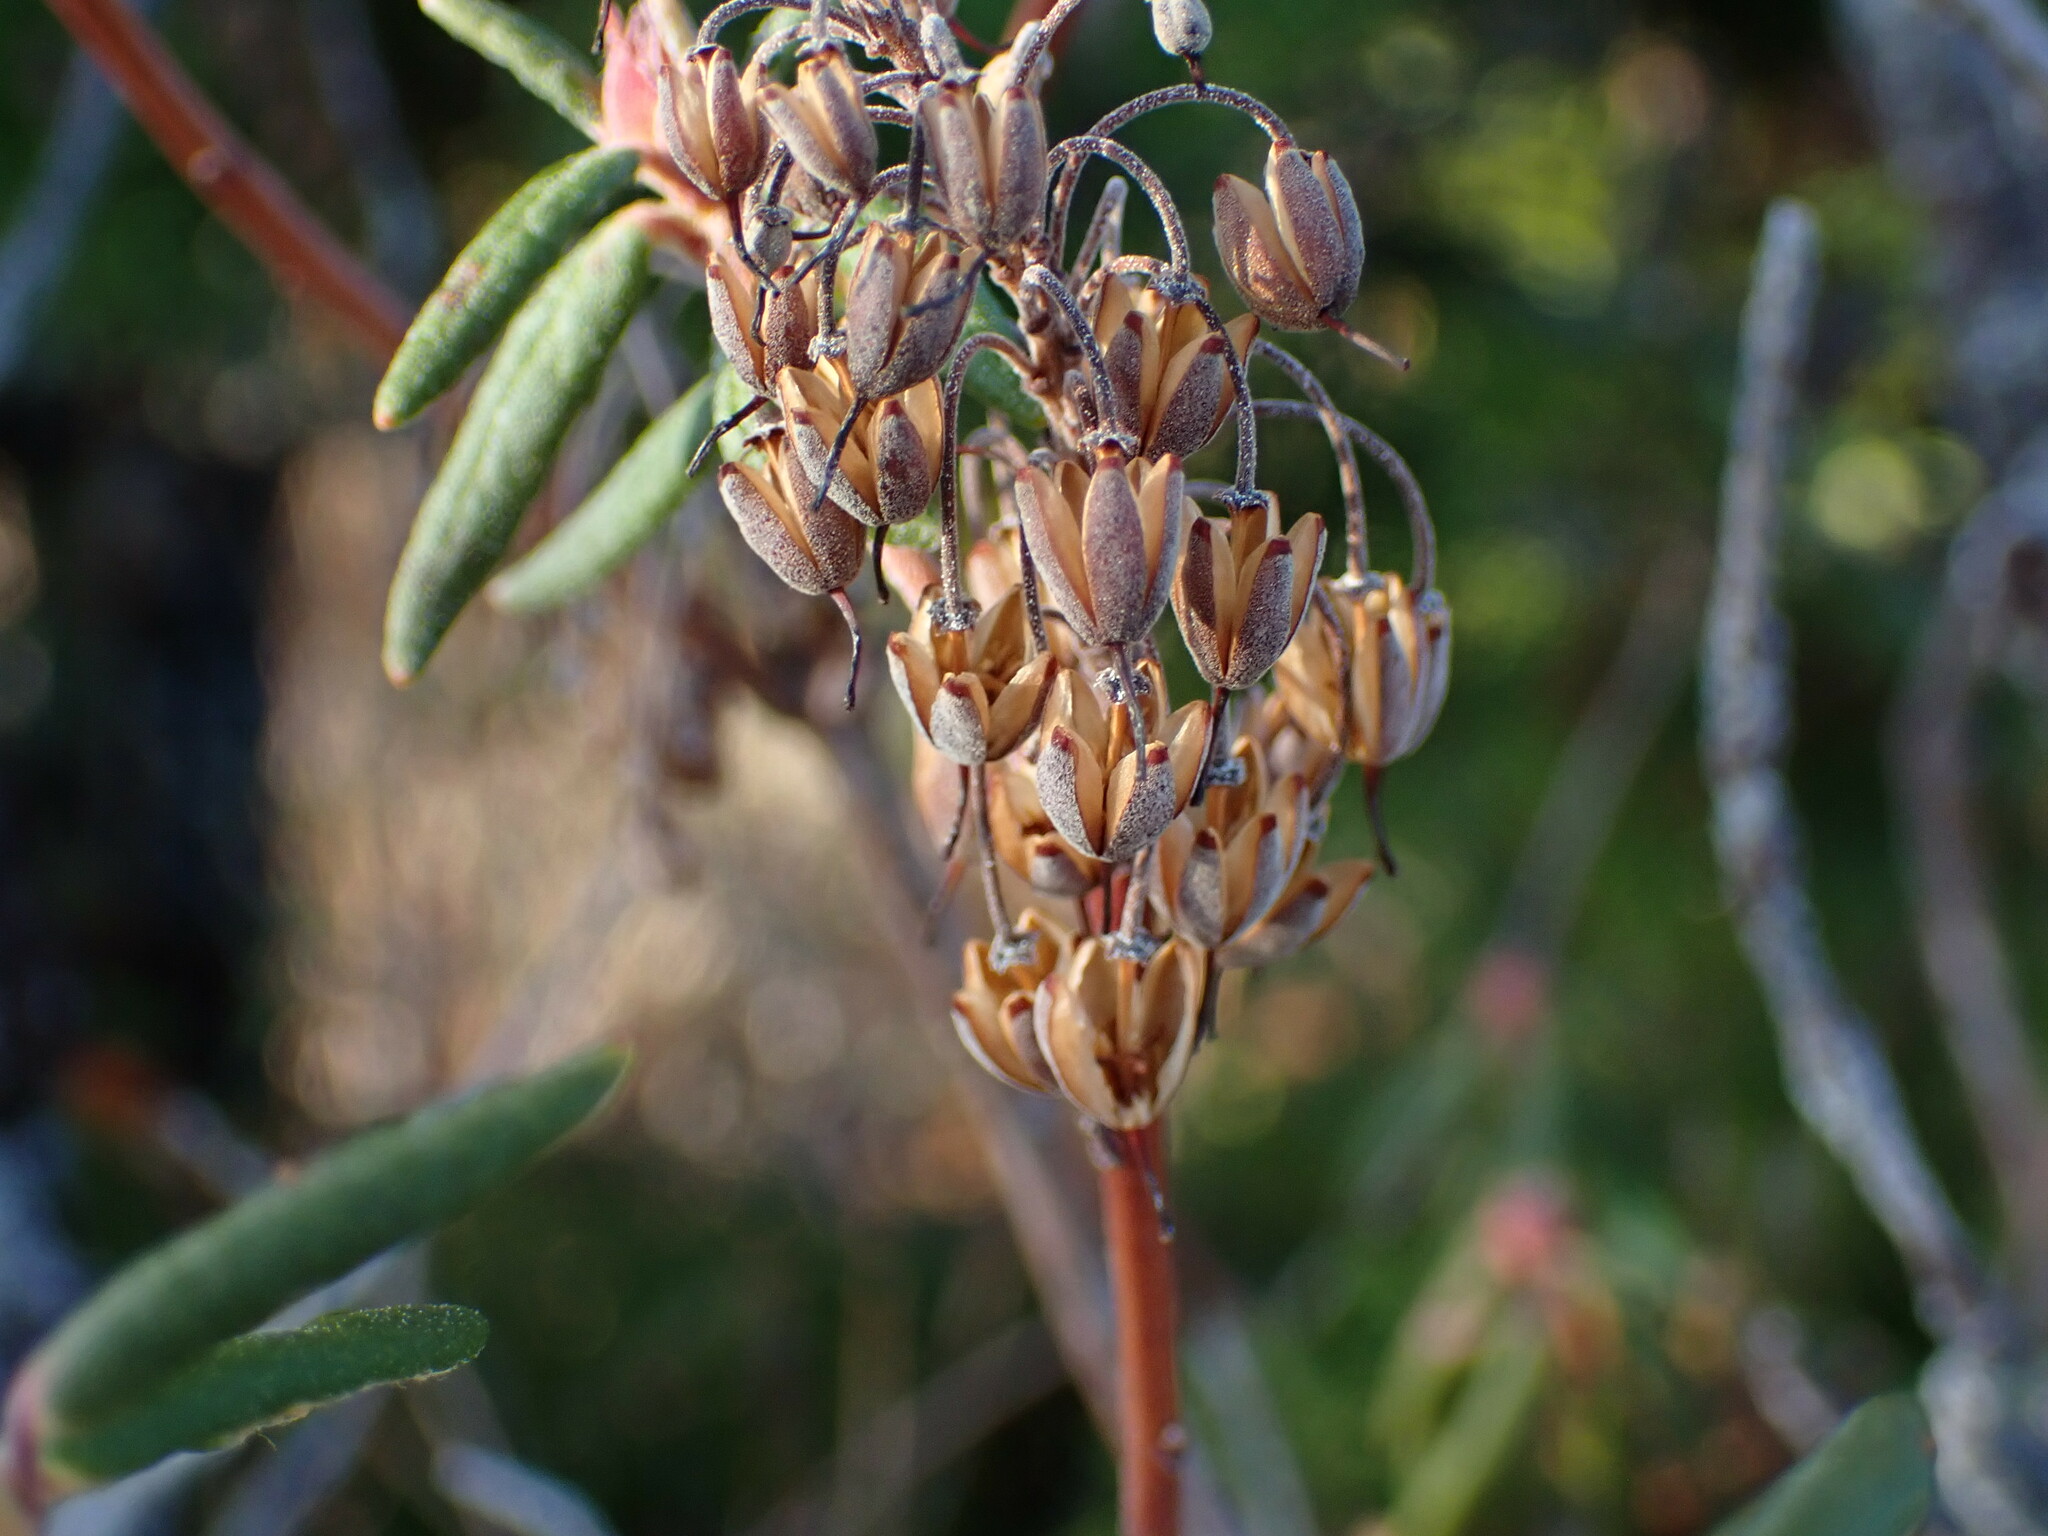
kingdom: Plantae
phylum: Tracheophyta
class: Magnoliopsida
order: Ericales
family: Ericaceae
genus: Rhododendron
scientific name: Rhododendron groenlandicum
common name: Bog labrador tea
